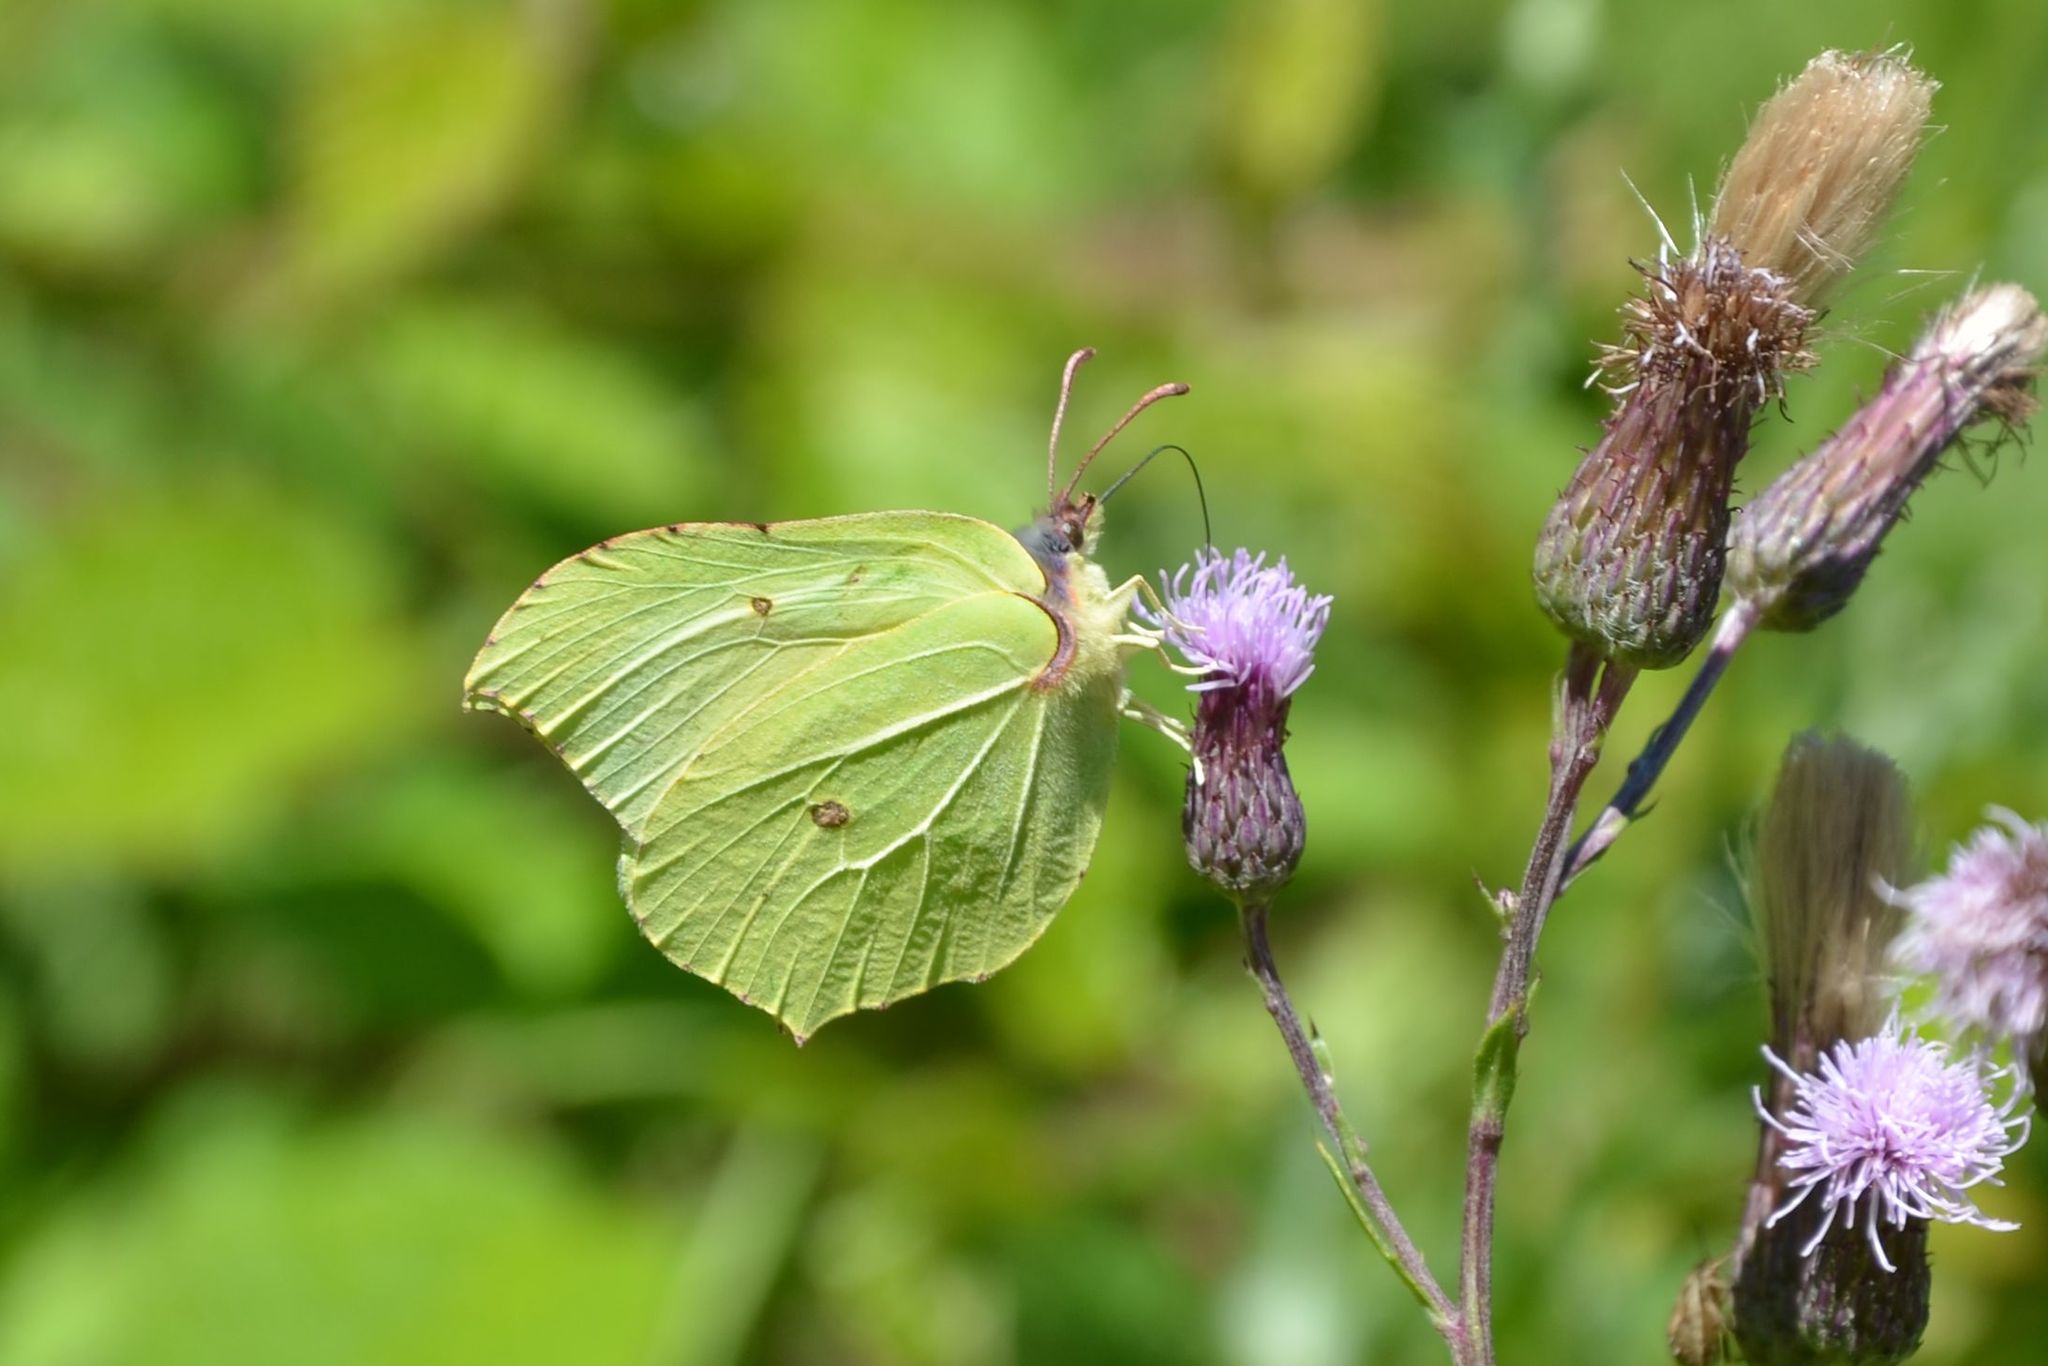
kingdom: Animalia
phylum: Arthropoda
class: Insecta
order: Lepidoptera
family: Pieridae
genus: Gonepteryx
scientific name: Gonepteryx rhamni
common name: Brimstone
